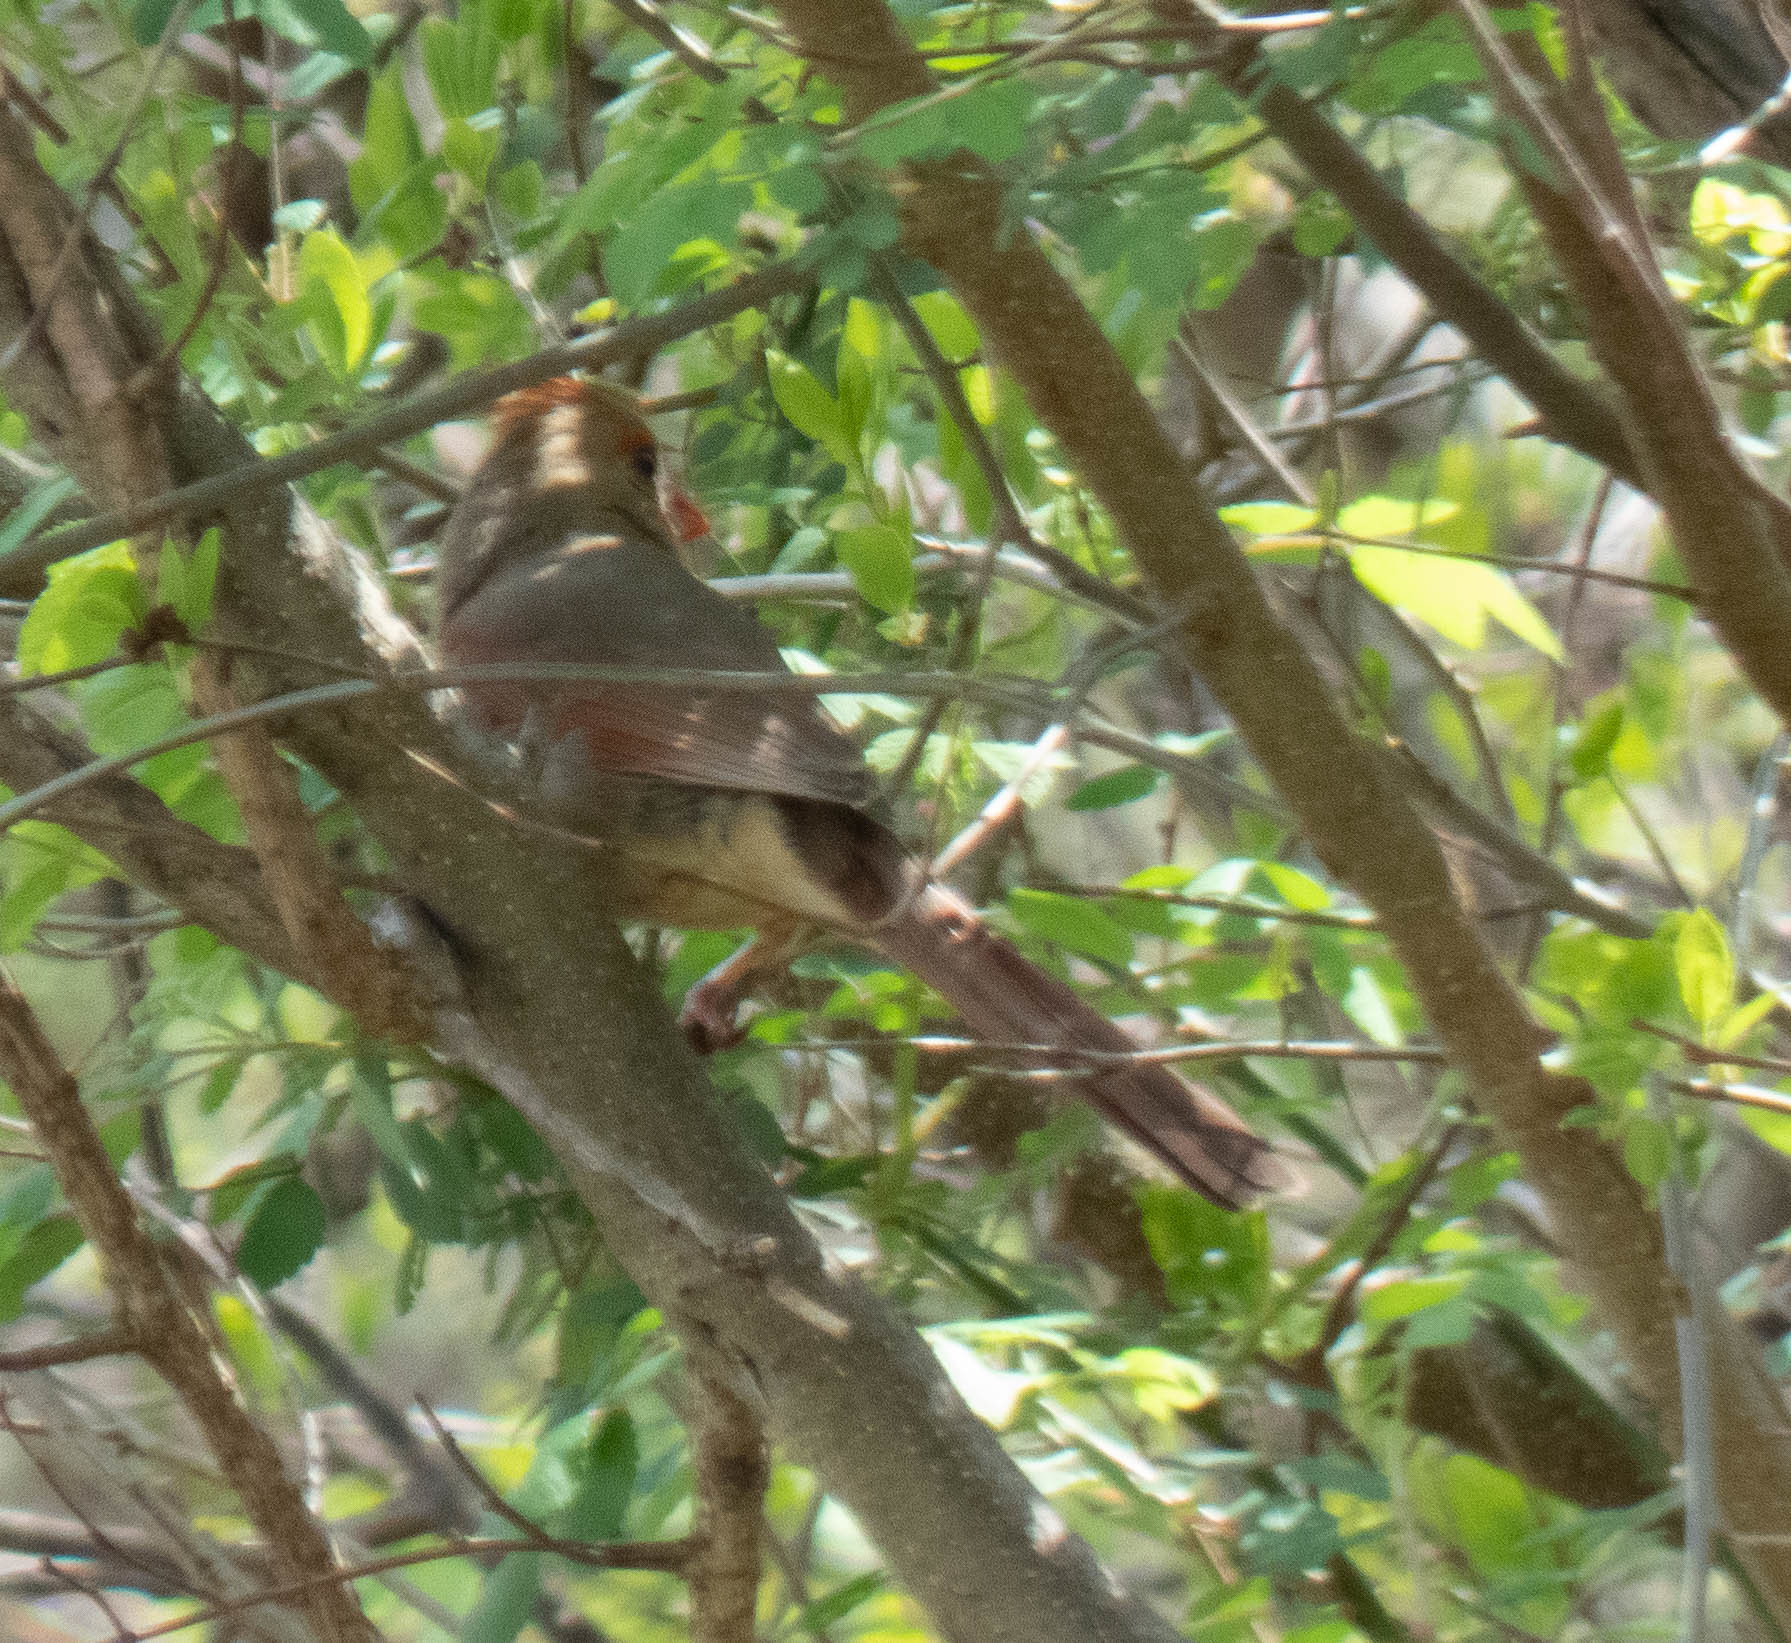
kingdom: Animalia
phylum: Chordata
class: Aves
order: Passeriformes
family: Cardinalidae
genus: Cardinalis
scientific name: Cardinalis cardinalis
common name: Northern cardinal
